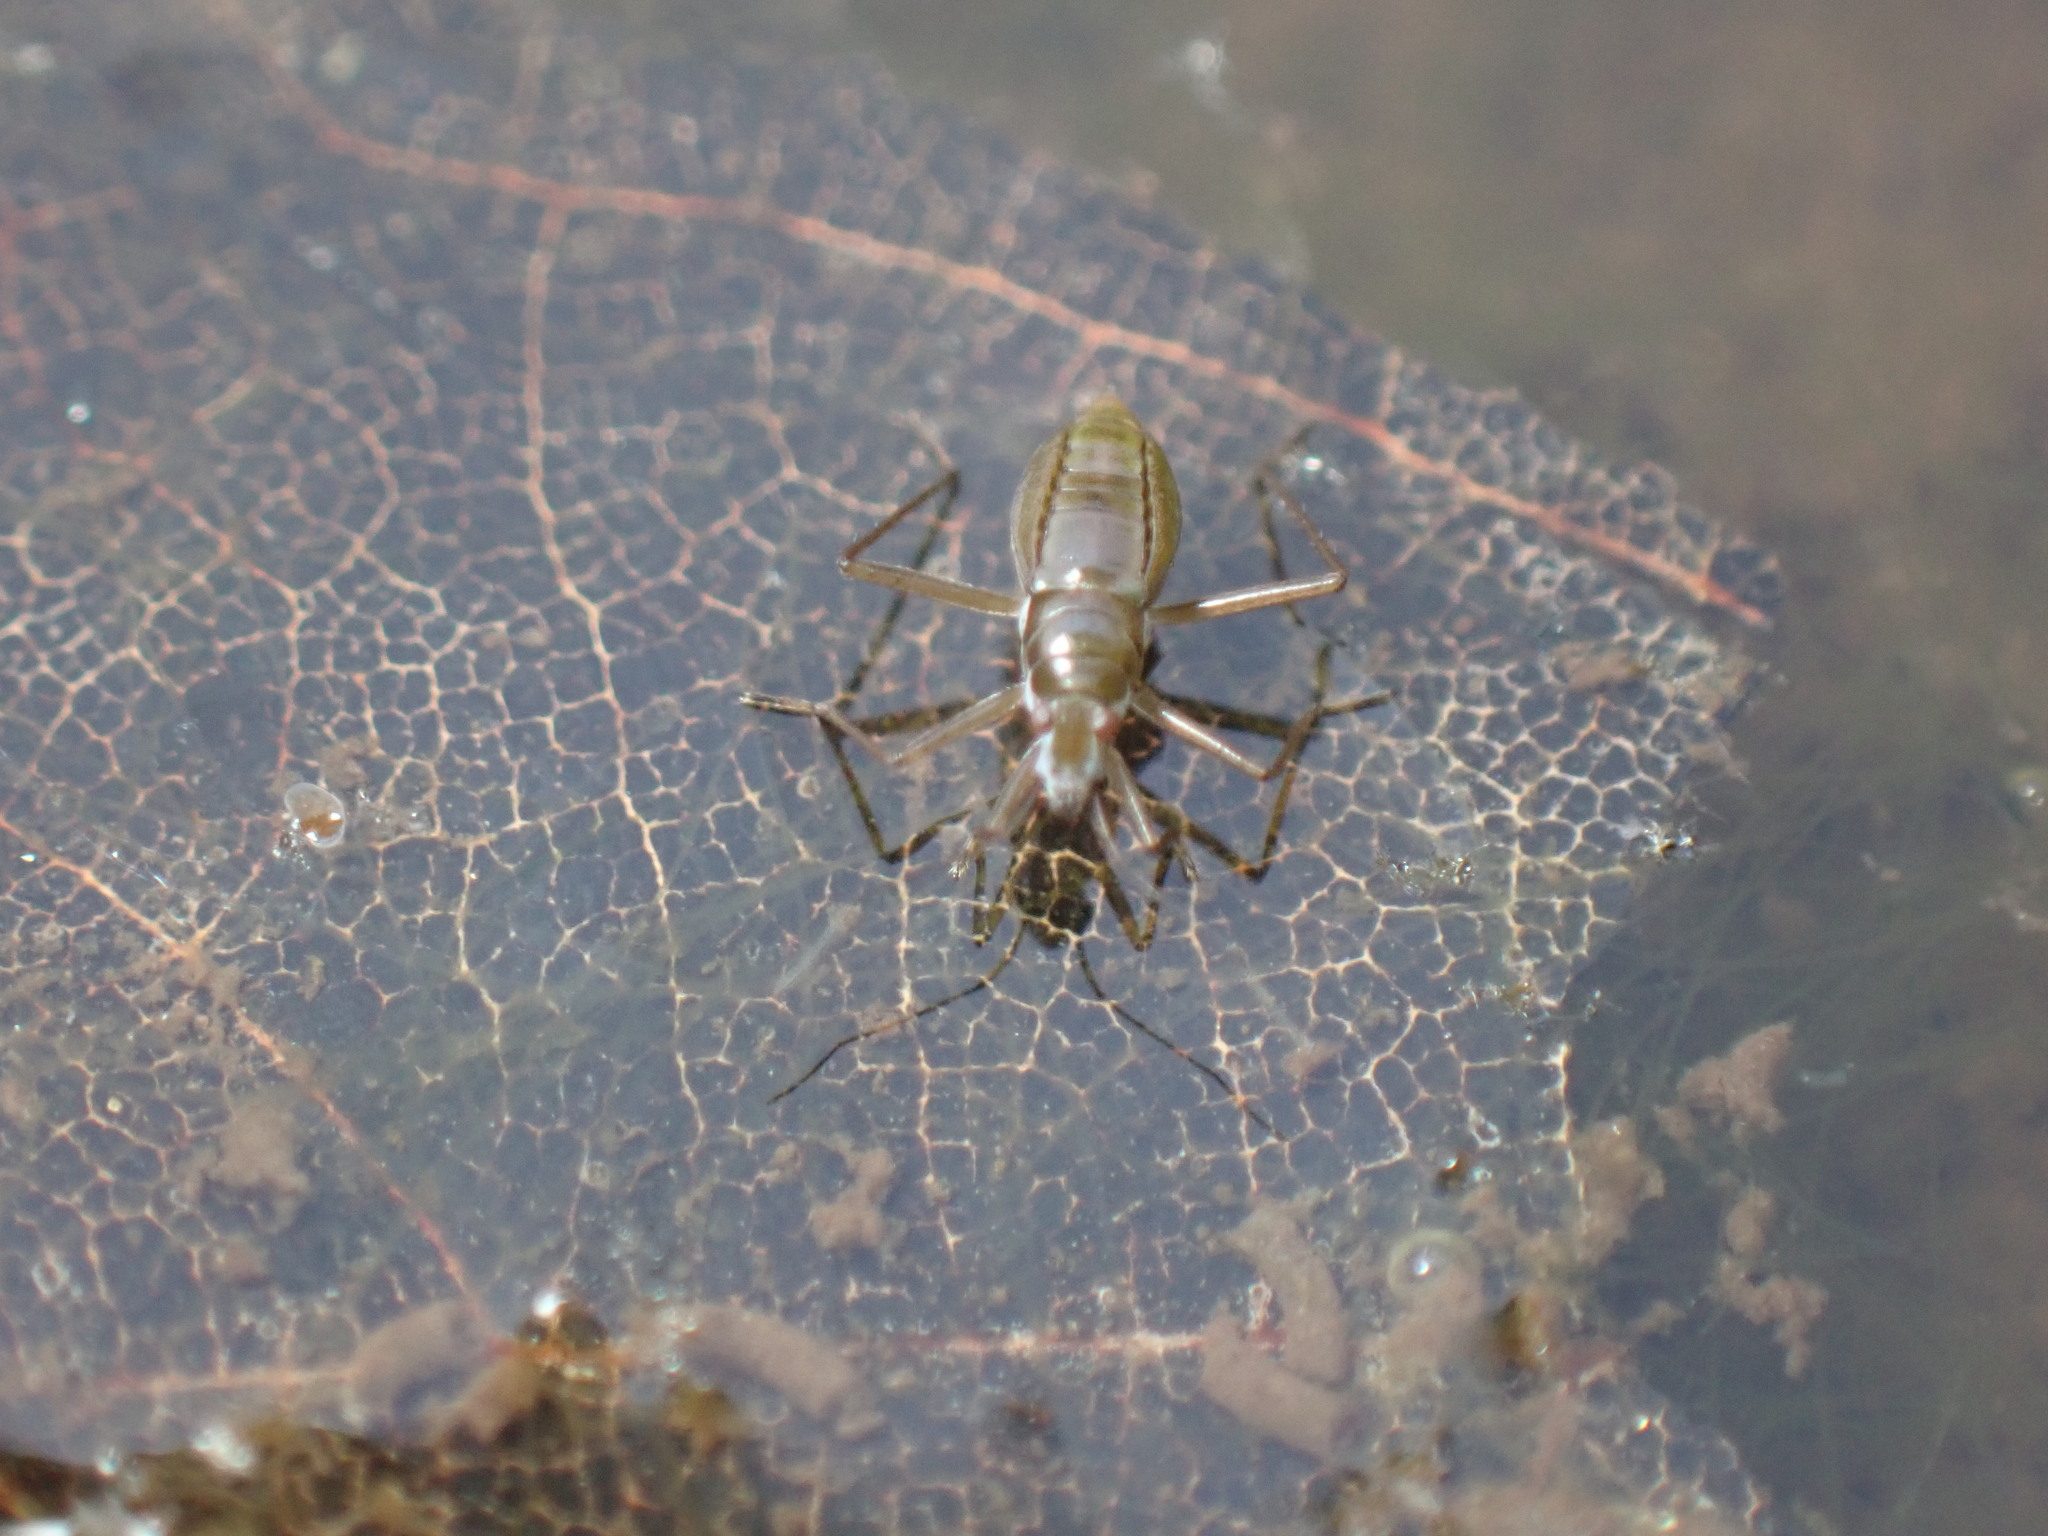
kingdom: Animalia
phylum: Arthropoda
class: Insecta
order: Hemiptera
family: Mesoveliidae
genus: Mesovelia
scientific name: Mesovelia mulsanti
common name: Water treaders
